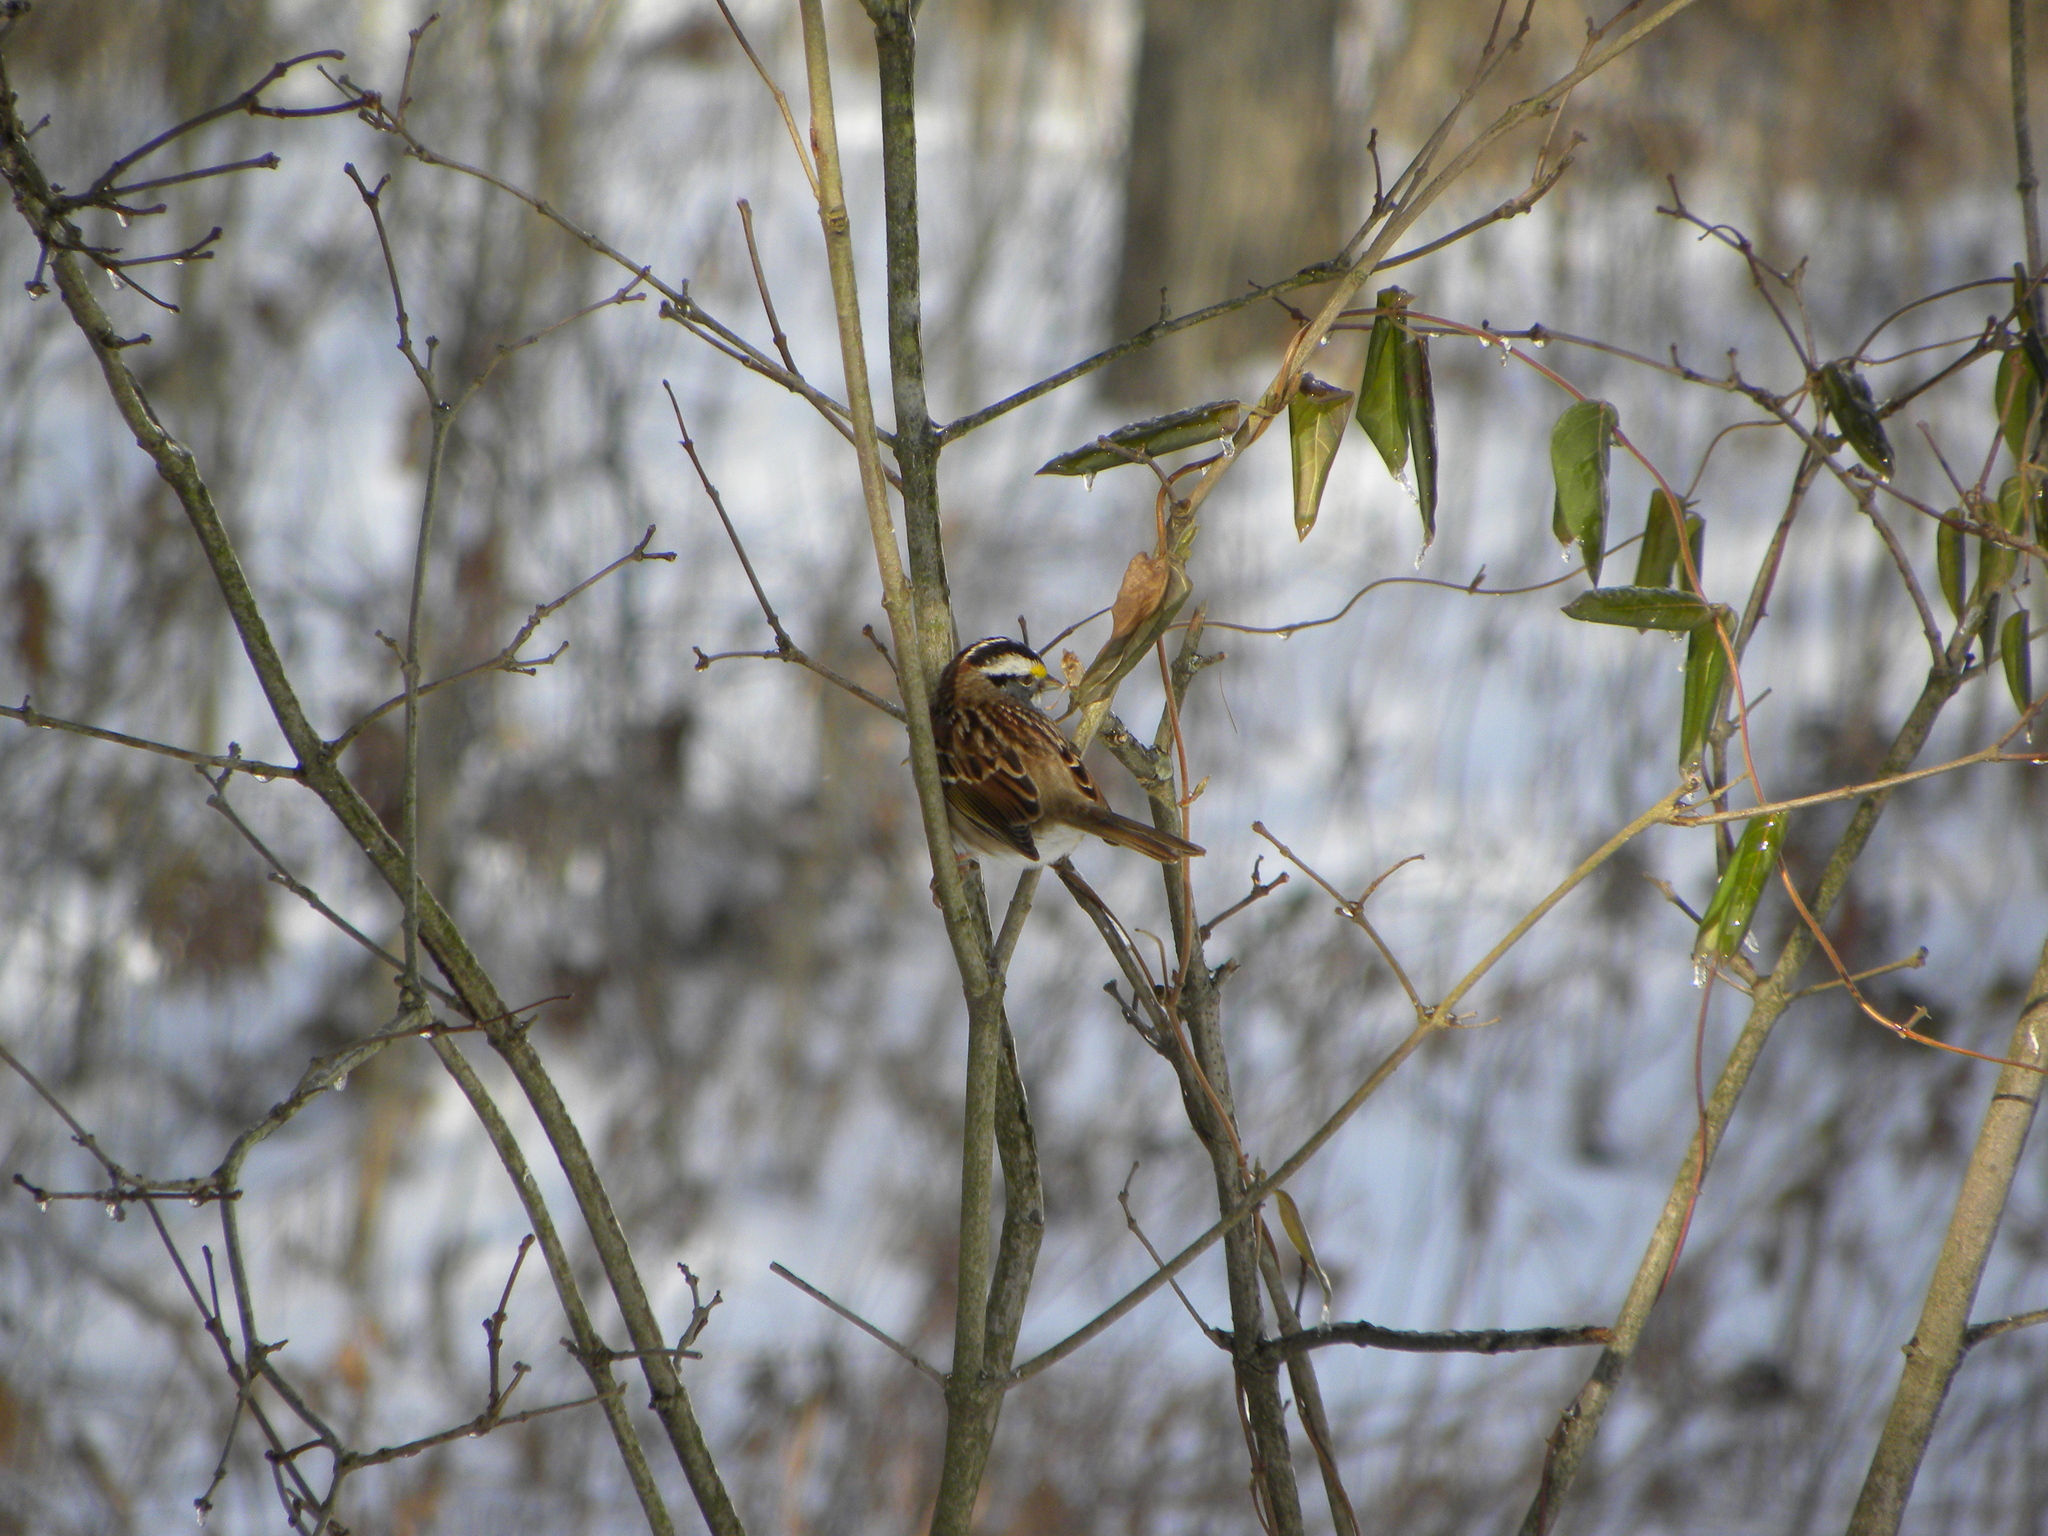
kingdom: Animalia
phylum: Chordata
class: Aves
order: Passeriformes
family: Passerellidae
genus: Zonotrichia
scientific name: Zonotrichia albicollis
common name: White-throated sparrow
